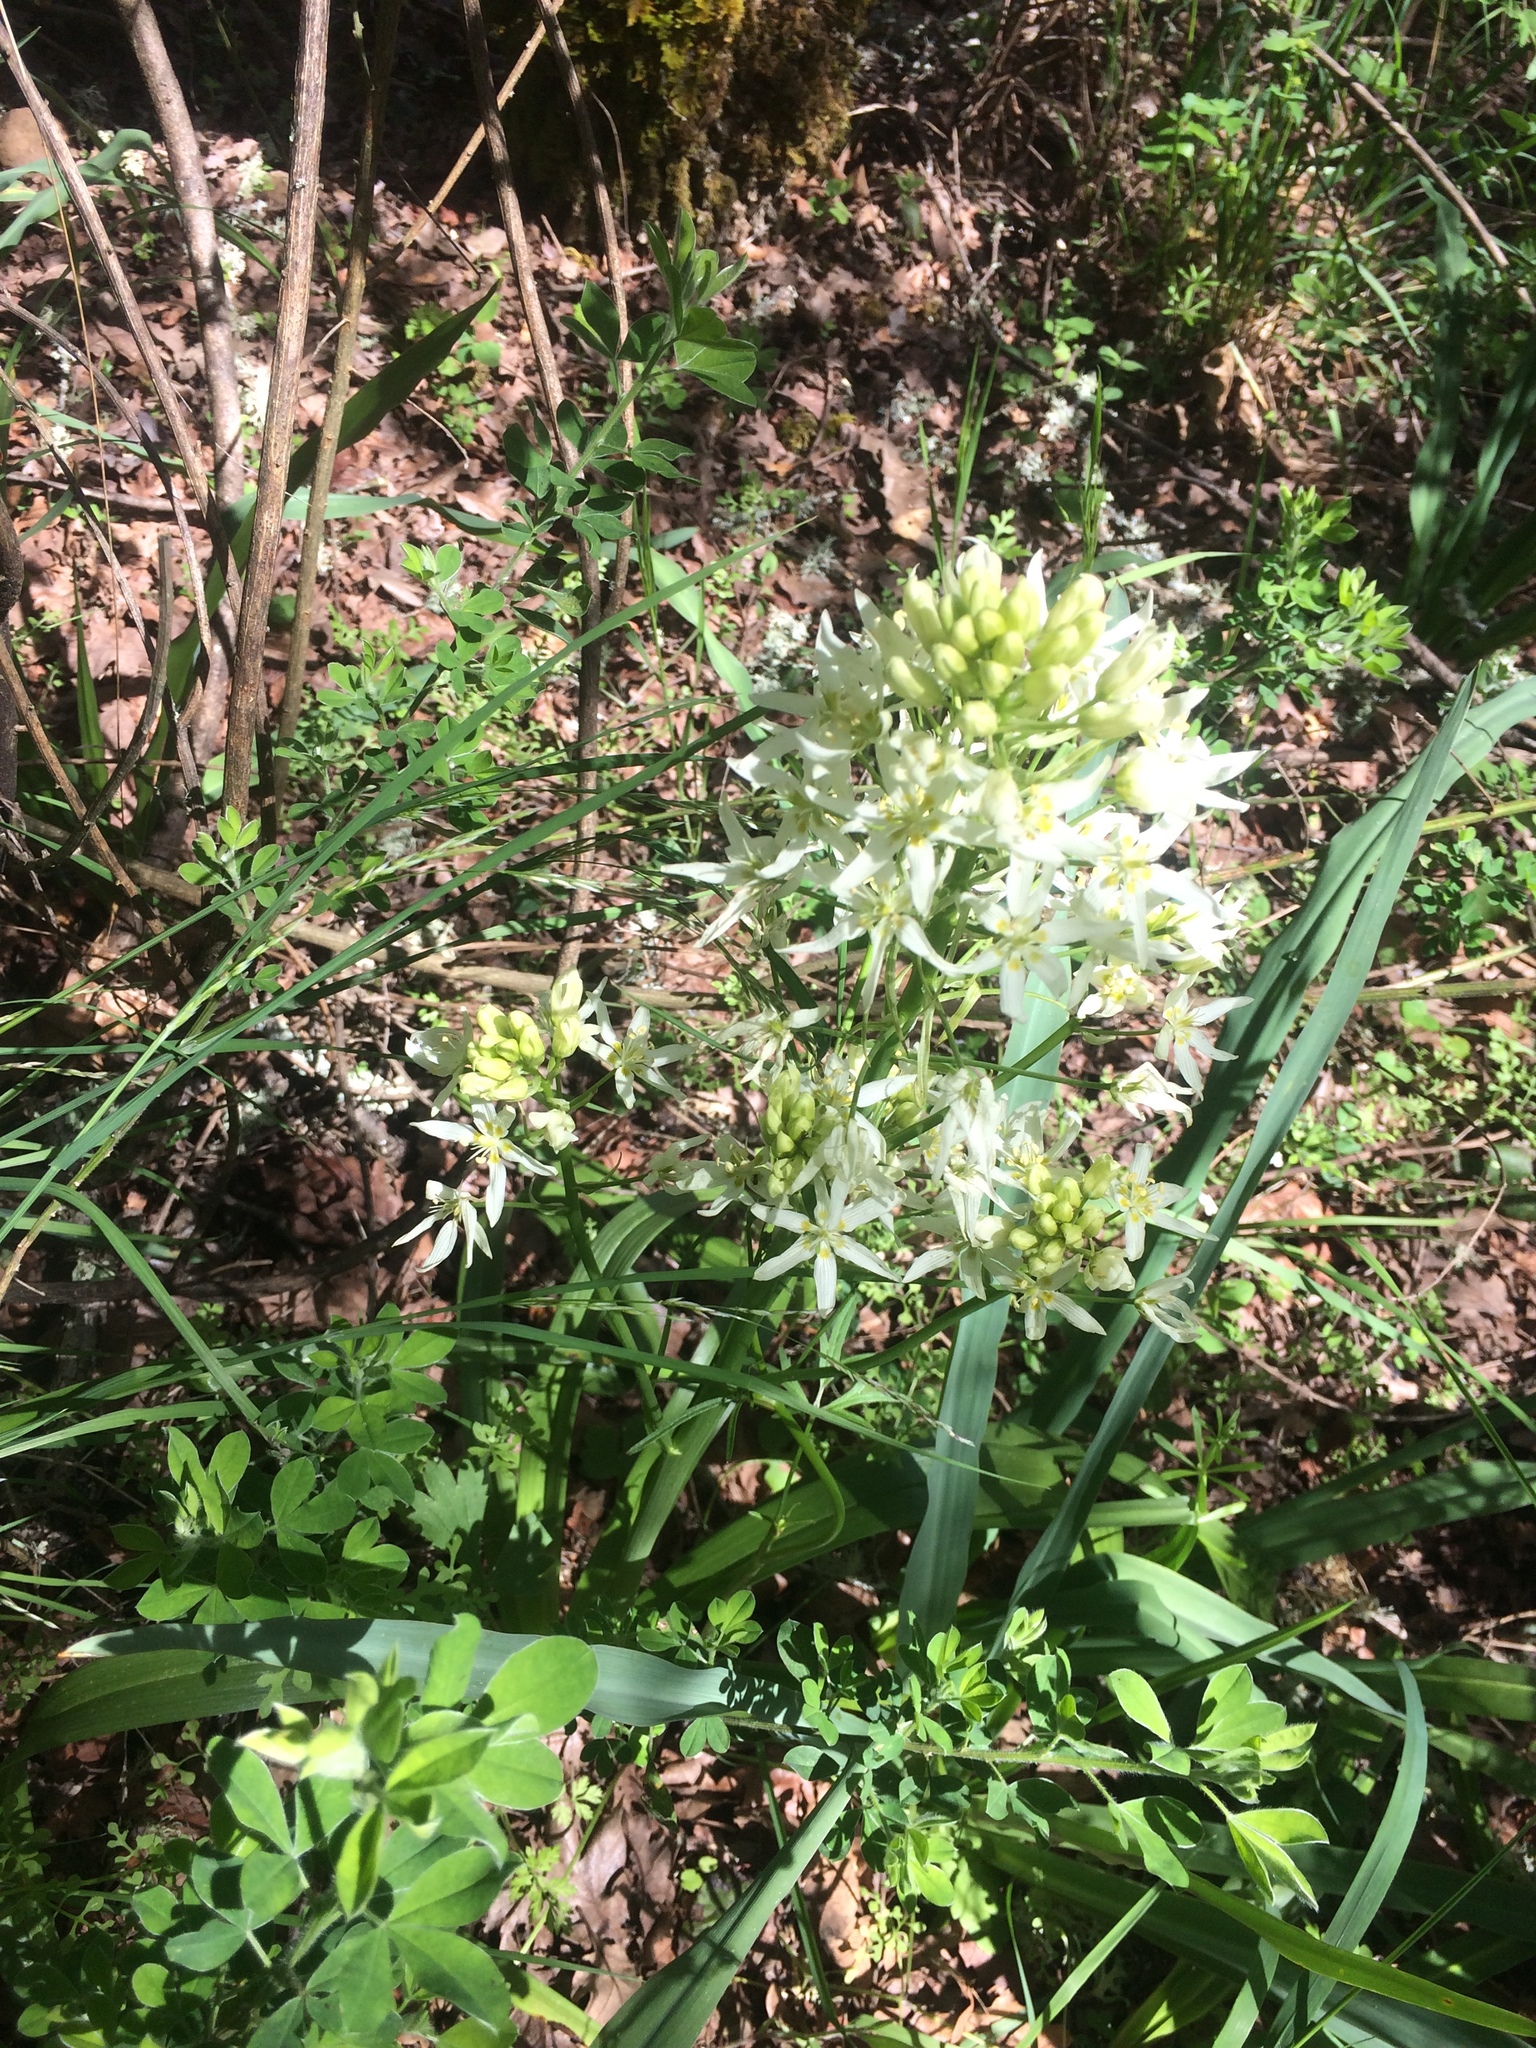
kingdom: Plantae
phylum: Tracheophyta
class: Liliopsida
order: Liliales
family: Melanthiaceae
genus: Toxicoscordion
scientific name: Toxicoscordion fremontii
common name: Fremont's death camas
